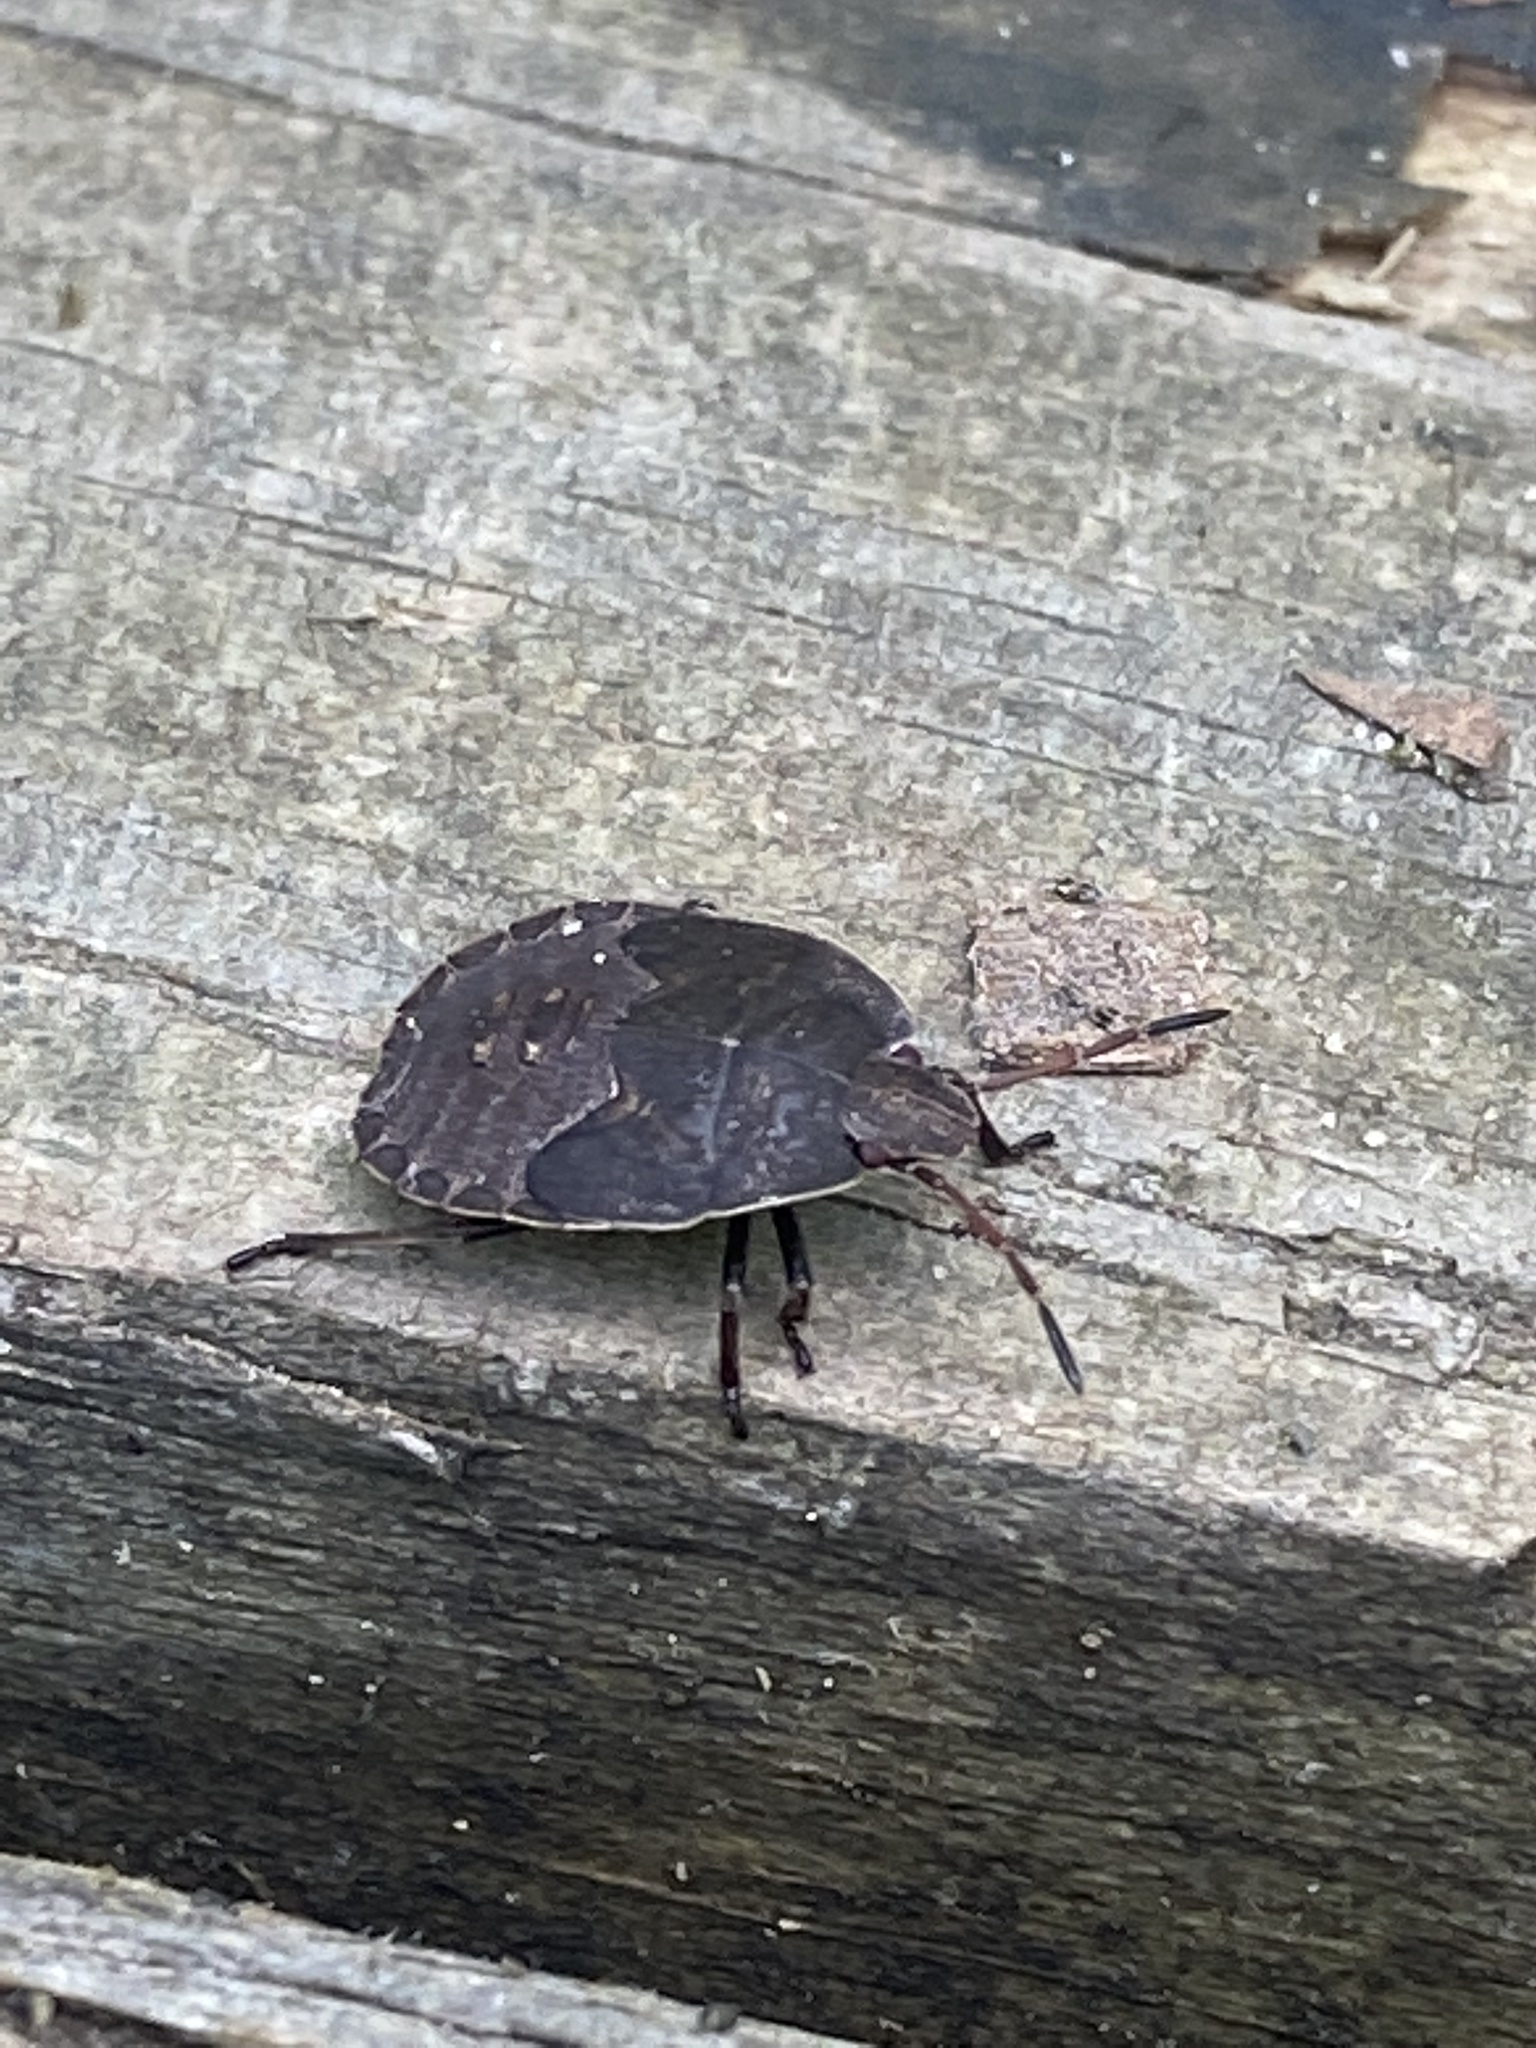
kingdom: Animalia
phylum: Arthropoda
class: Insecta
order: Hemiptera
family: Pentatomidae
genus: Menecles
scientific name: Menecles insertus
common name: Elf shoe stink bug
